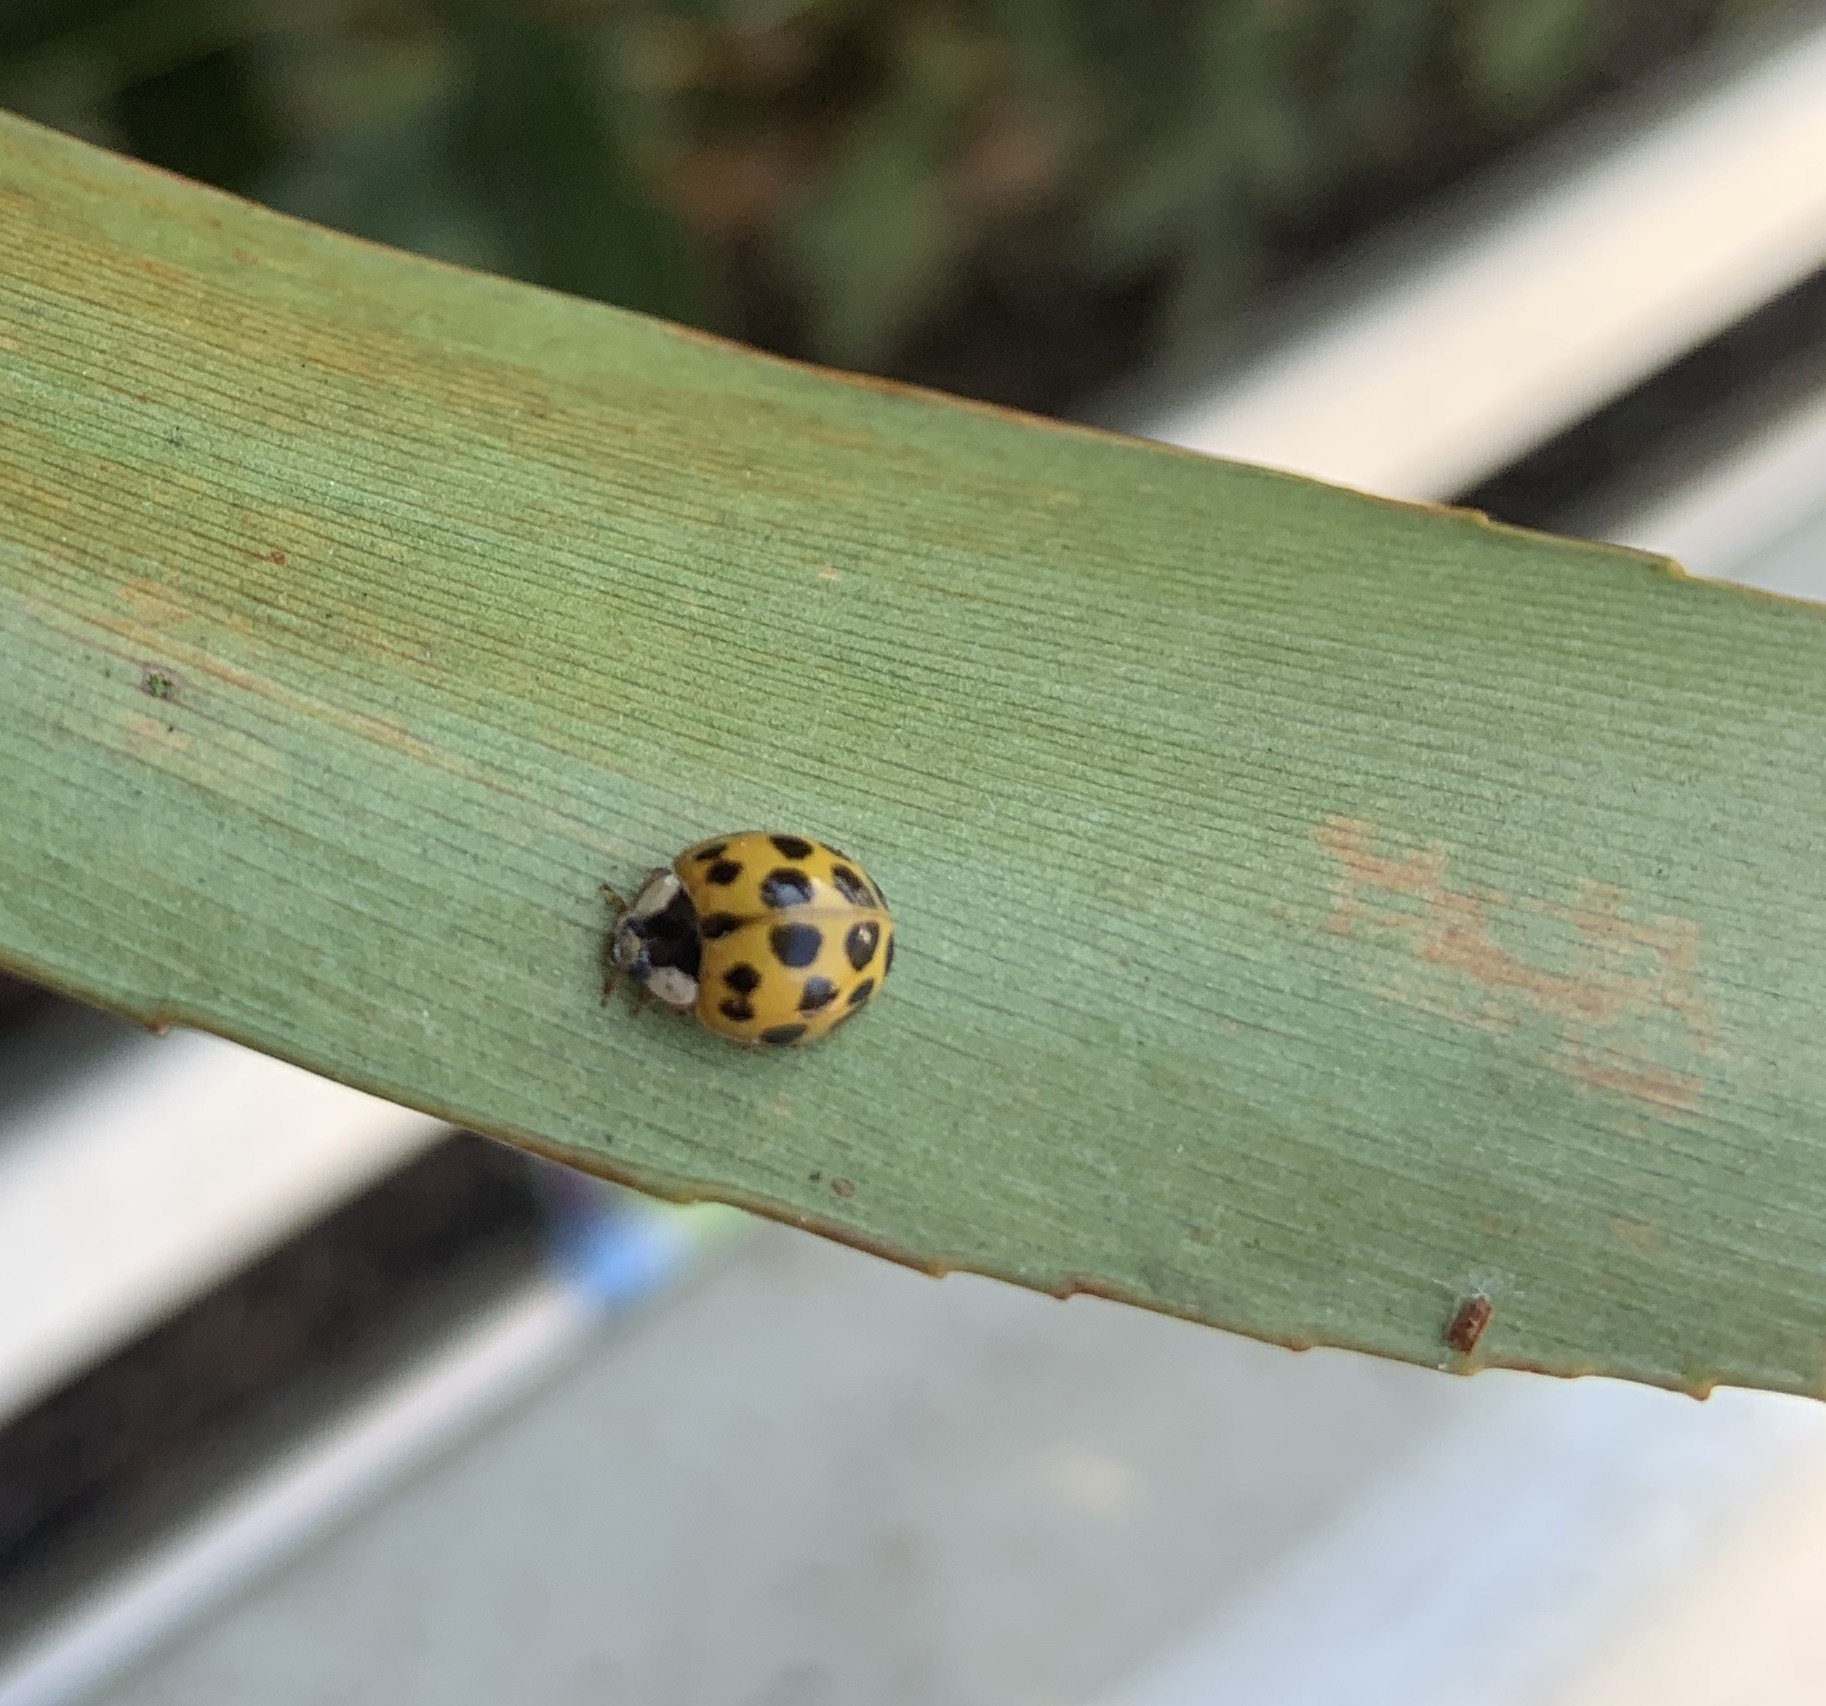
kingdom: Animalia
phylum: Arthropoda
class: Insecta
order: Coleoptera
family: Coccinellidae
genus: Harmonia
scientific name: Harmonia axyridis
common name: Harlequin ladybird
